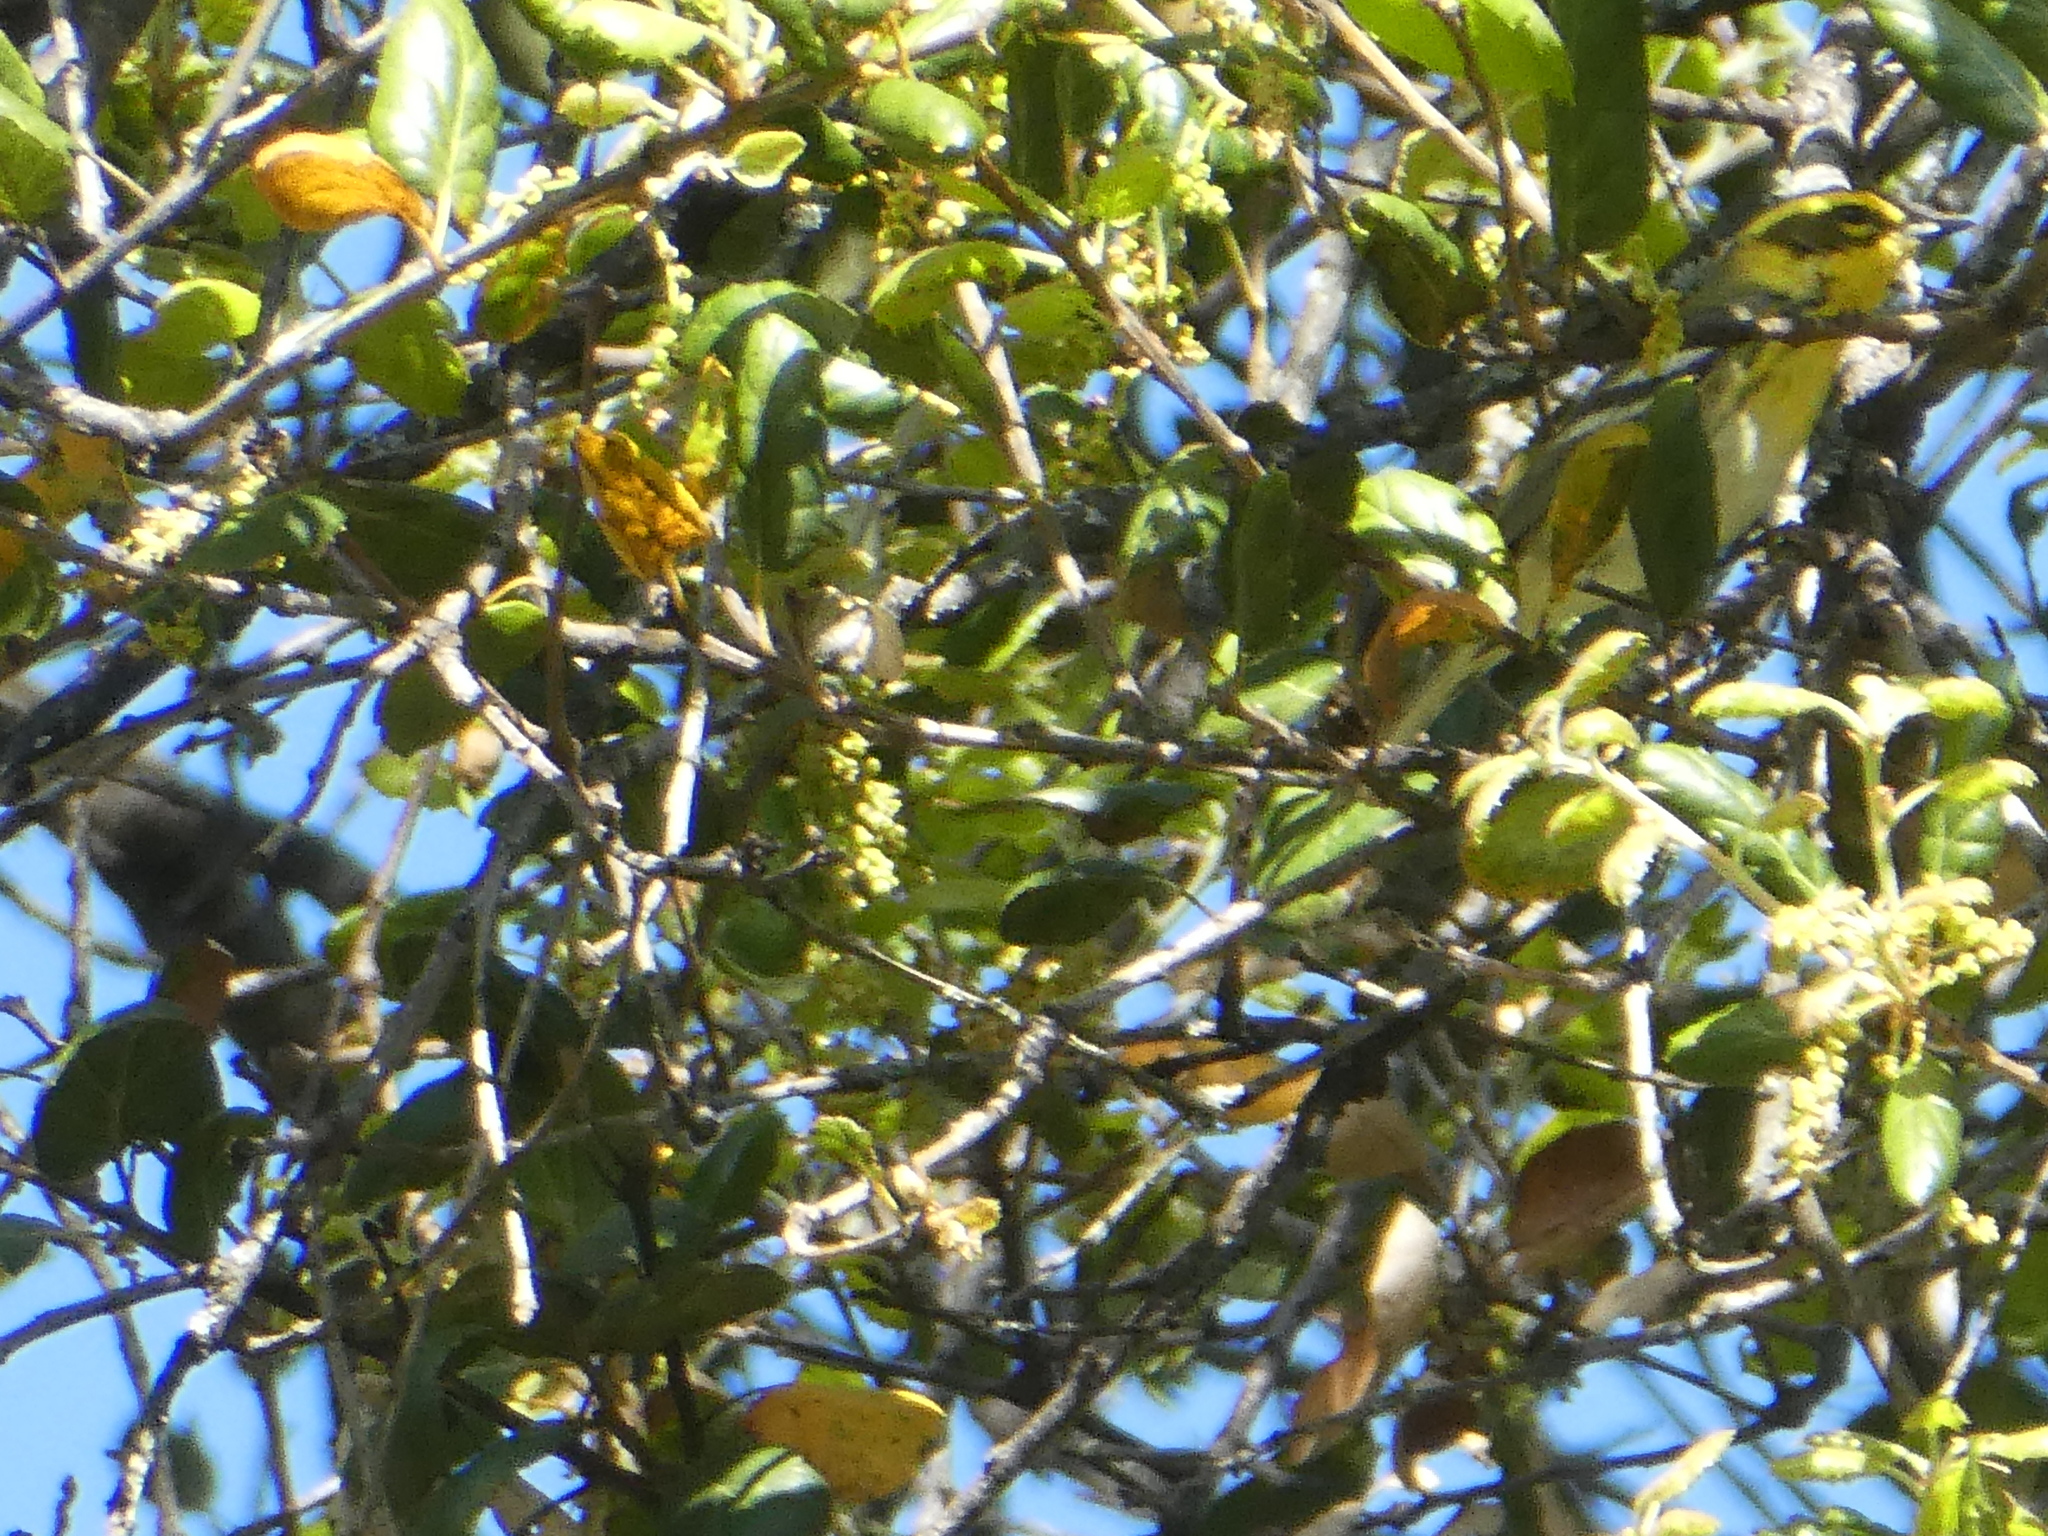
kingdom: Animalia
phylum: Chordata
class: Aves
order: Passeriformes
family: Parulidae
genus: Setophaga
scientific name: Setophaga townsendi
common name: Townsend's warbler
